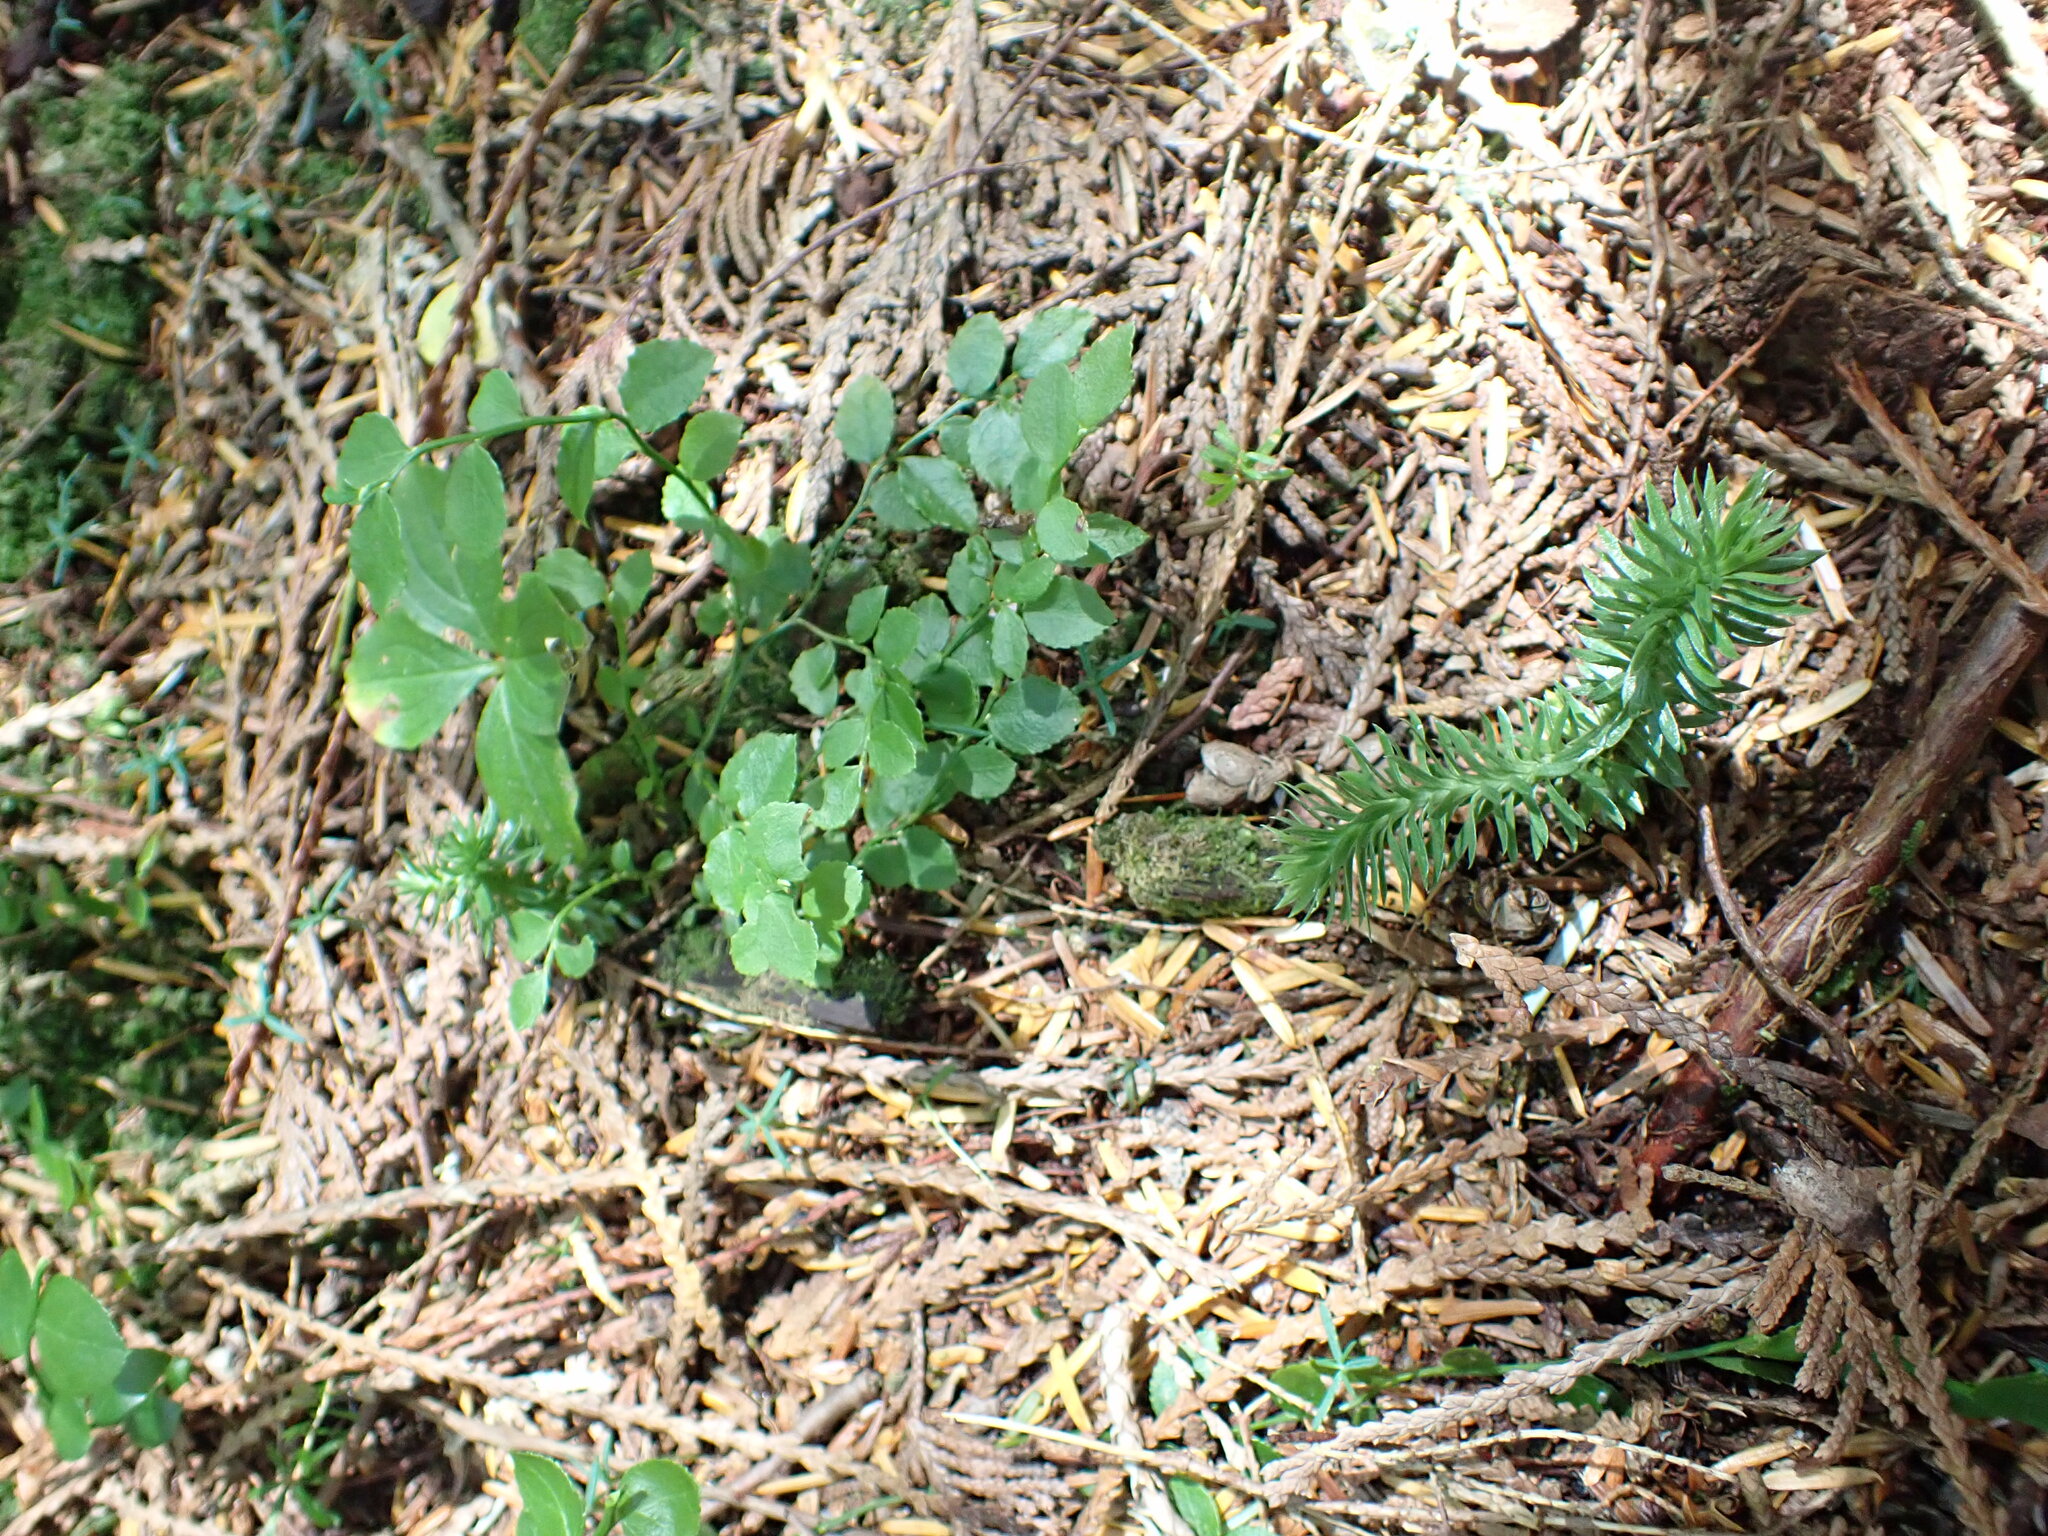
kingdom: Plantae
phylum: Tracheophyta
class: Lycopodiopsida
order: Lycopodiales
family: Lycopodiaceae
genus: Huperzia
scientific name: Huperzia occidentalis
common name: Western clubmoss
